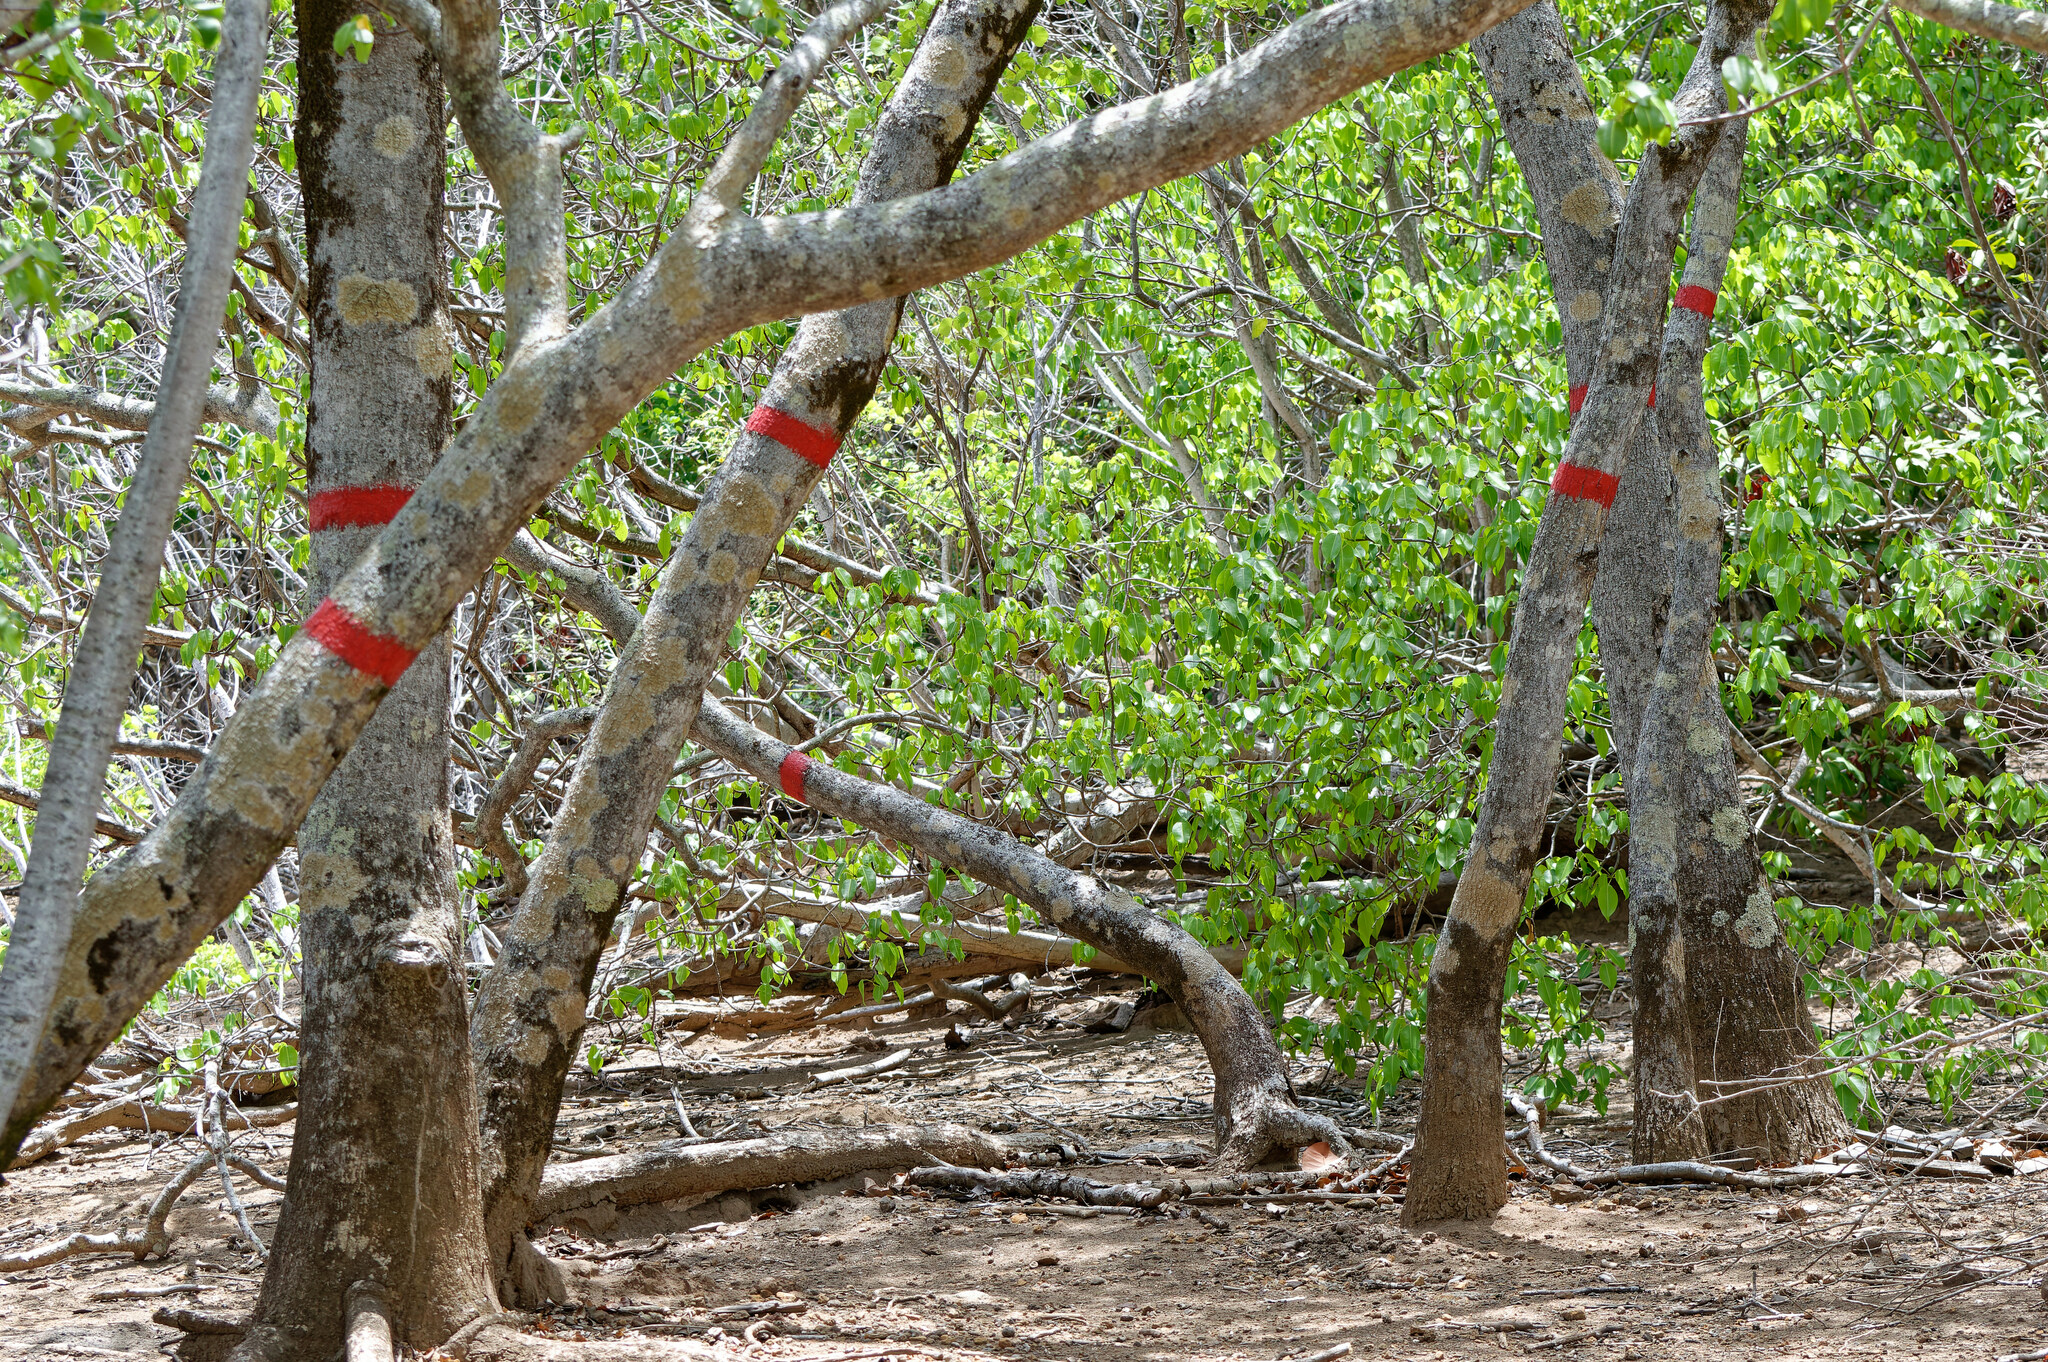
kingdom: Plantae
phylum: Tracheophyta
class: Magnoliopsida
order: Malpighiales
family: Euphorbiaceae
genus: Hippomane
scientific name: Hippomane mancinella
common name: Manchineel
